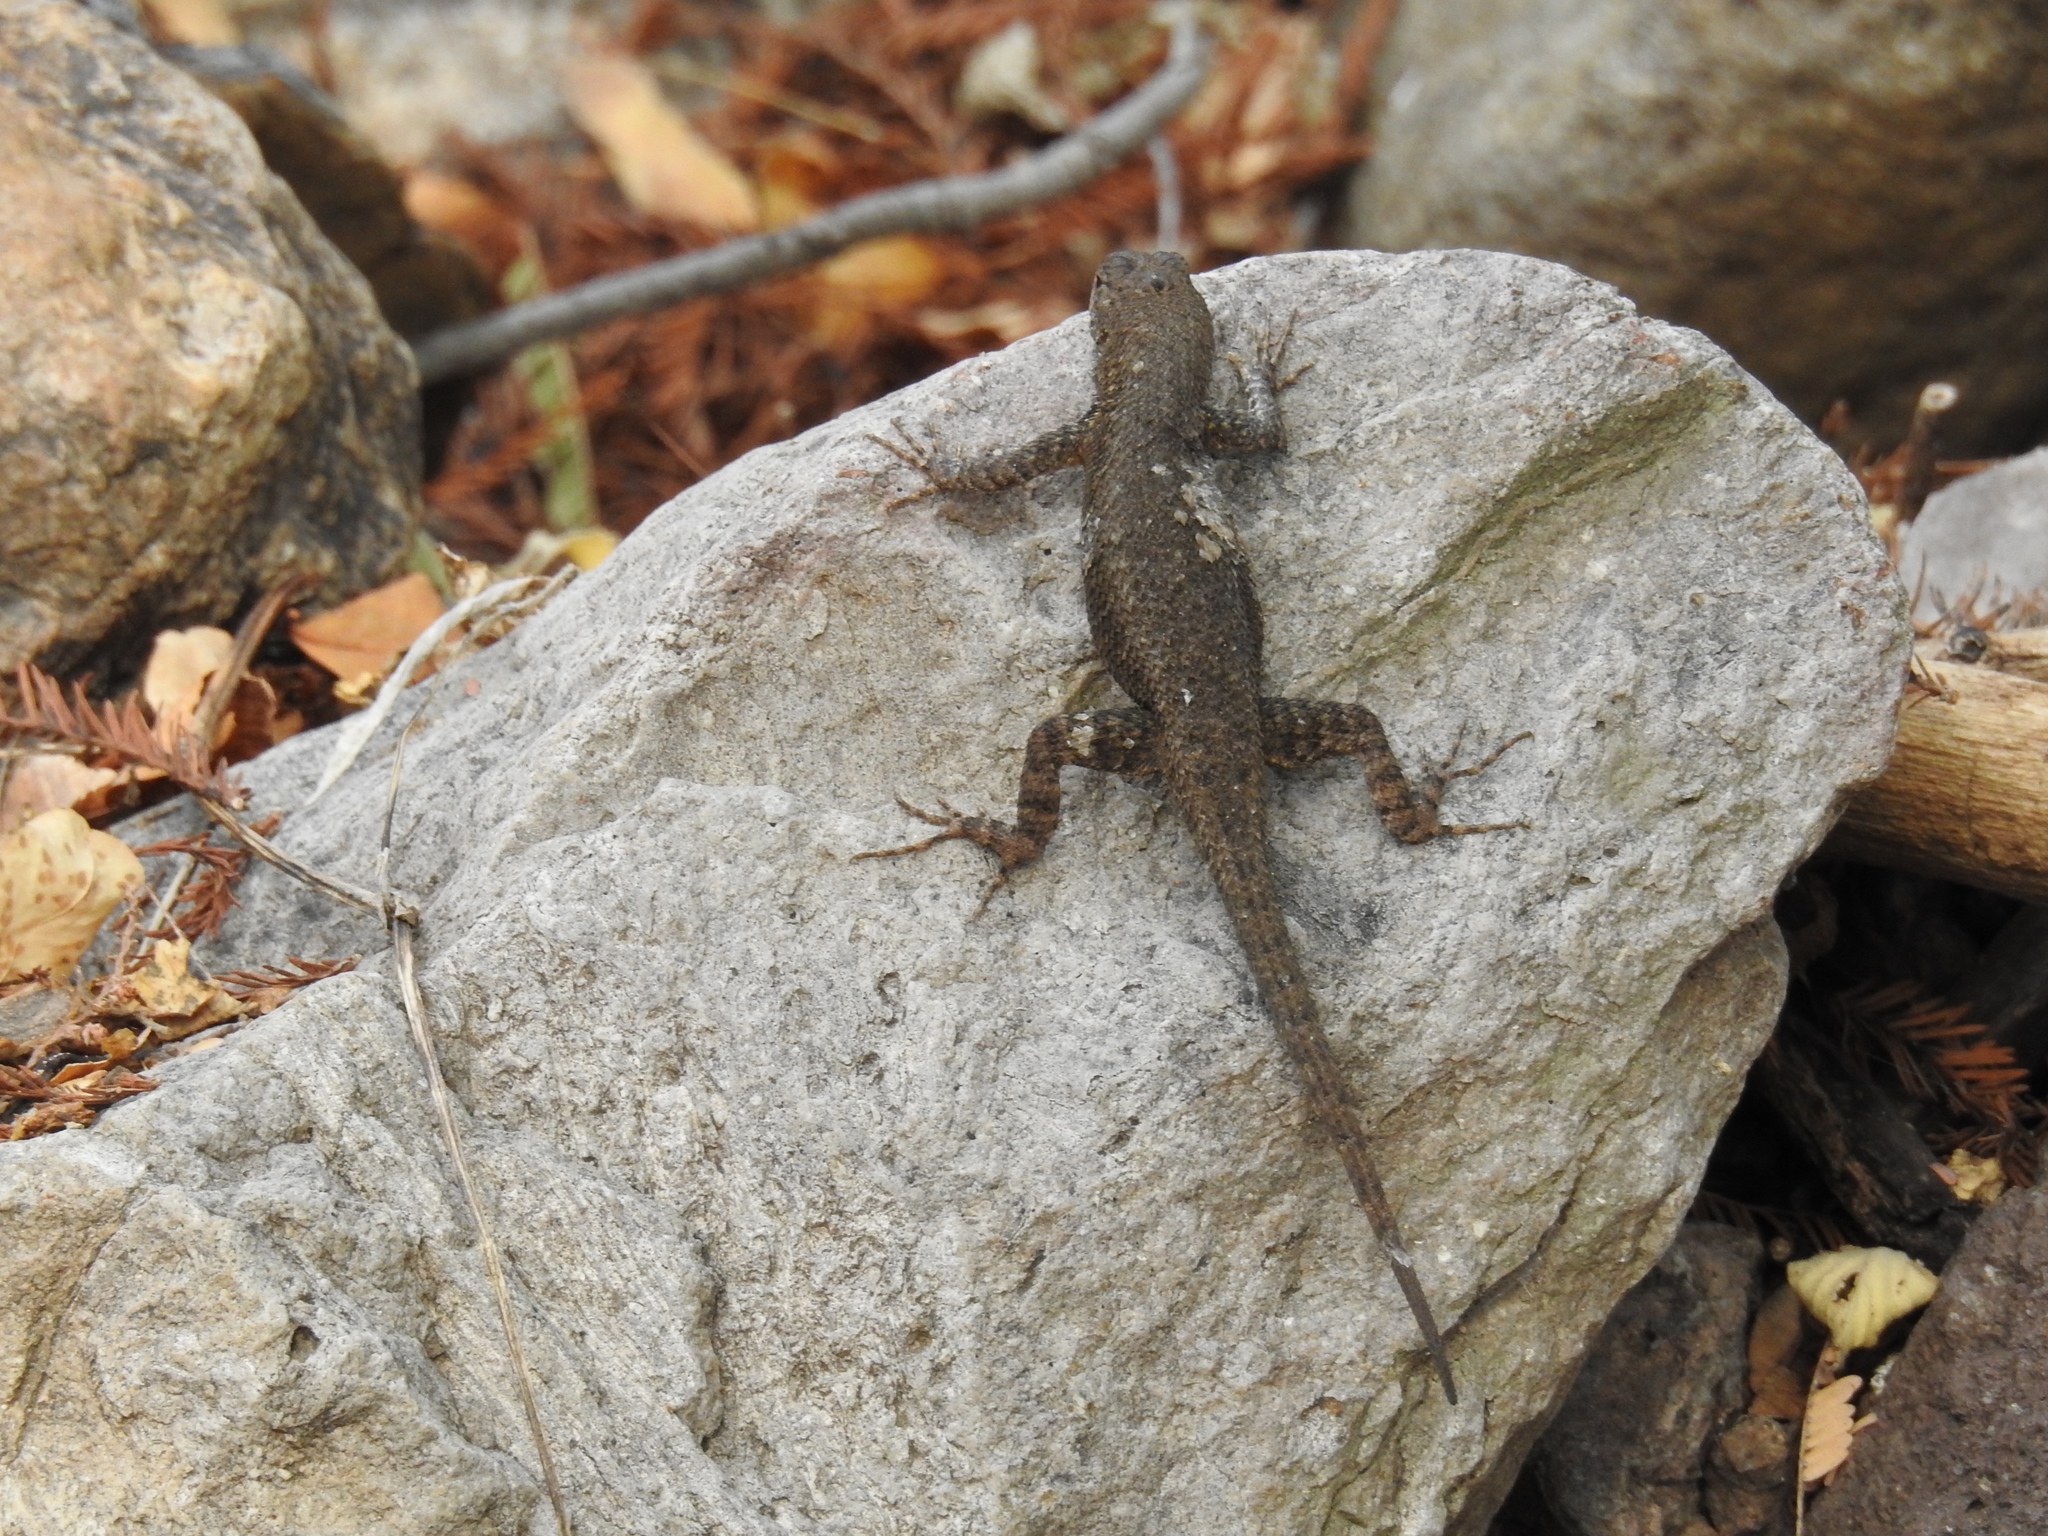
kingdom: Animalia
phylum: Chordata
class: Squamata
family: Phrynosomatidae
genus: Sceloporus
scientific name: Sceloporus nelsoni
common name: Nelson's spiny lizard
